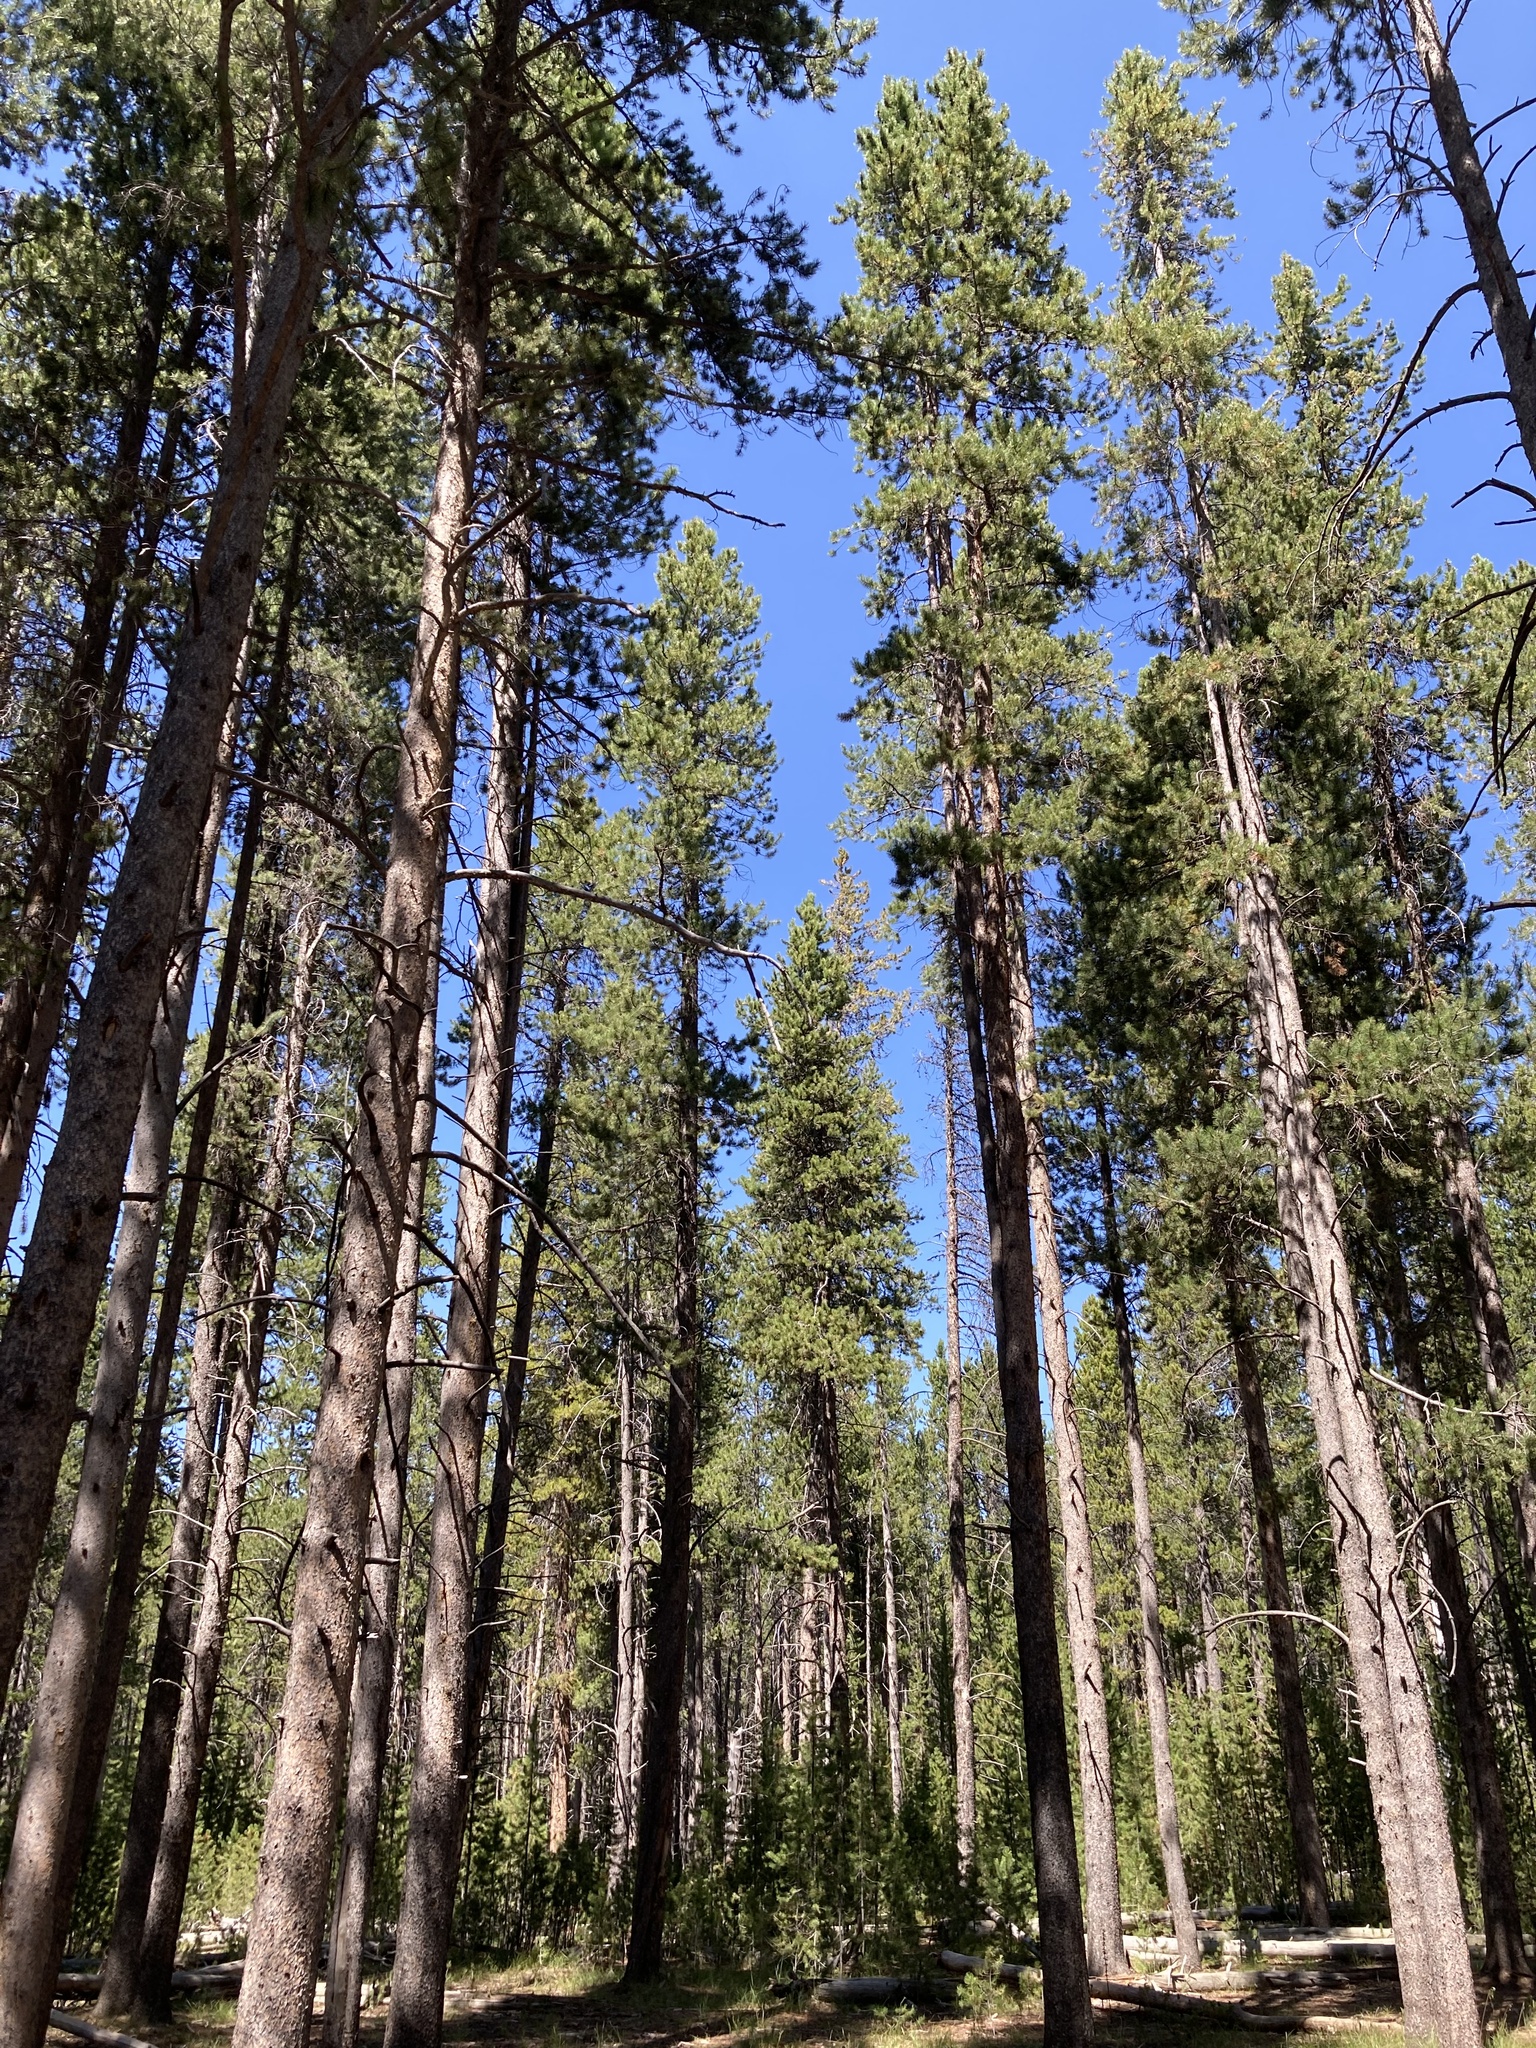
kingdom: Plantae
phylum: Tracheophyta
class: Pinopsida
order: Pinales
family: Pinaceae
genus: Pinus
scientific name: Pinus contorta
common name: Lodgepole pine
